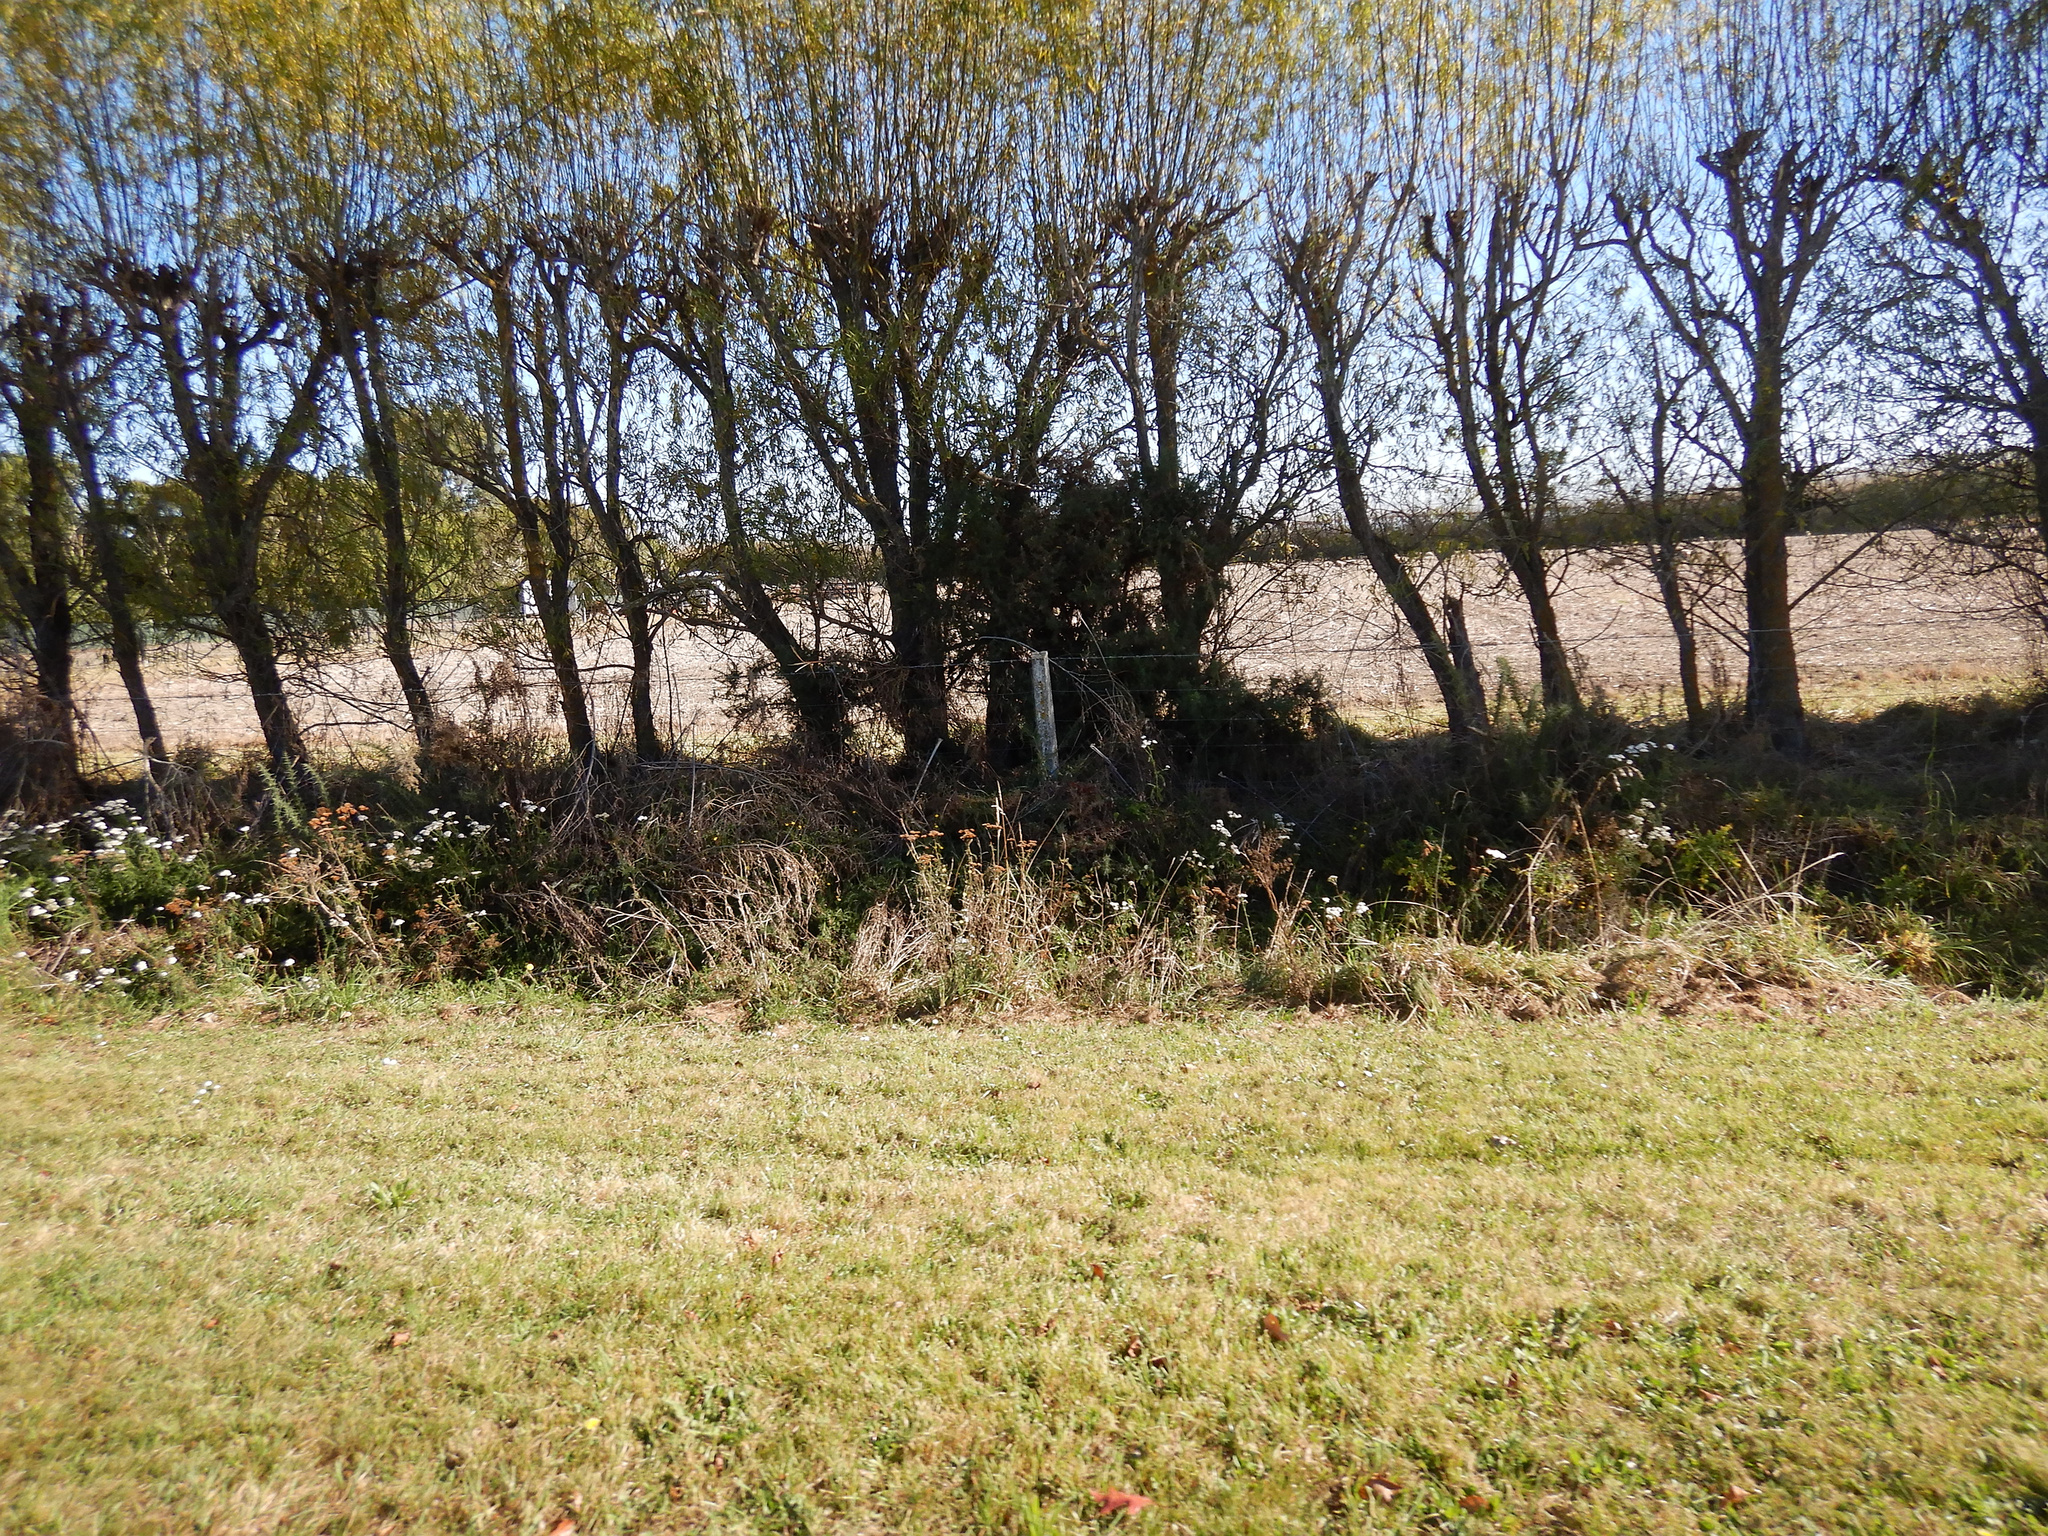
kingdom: Plantae
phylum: Tracheophyta
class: Magnoliopsida
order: Fabales
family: Fabaceae
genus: Ulex
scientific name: Ulex europaeus
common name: Common gorse
